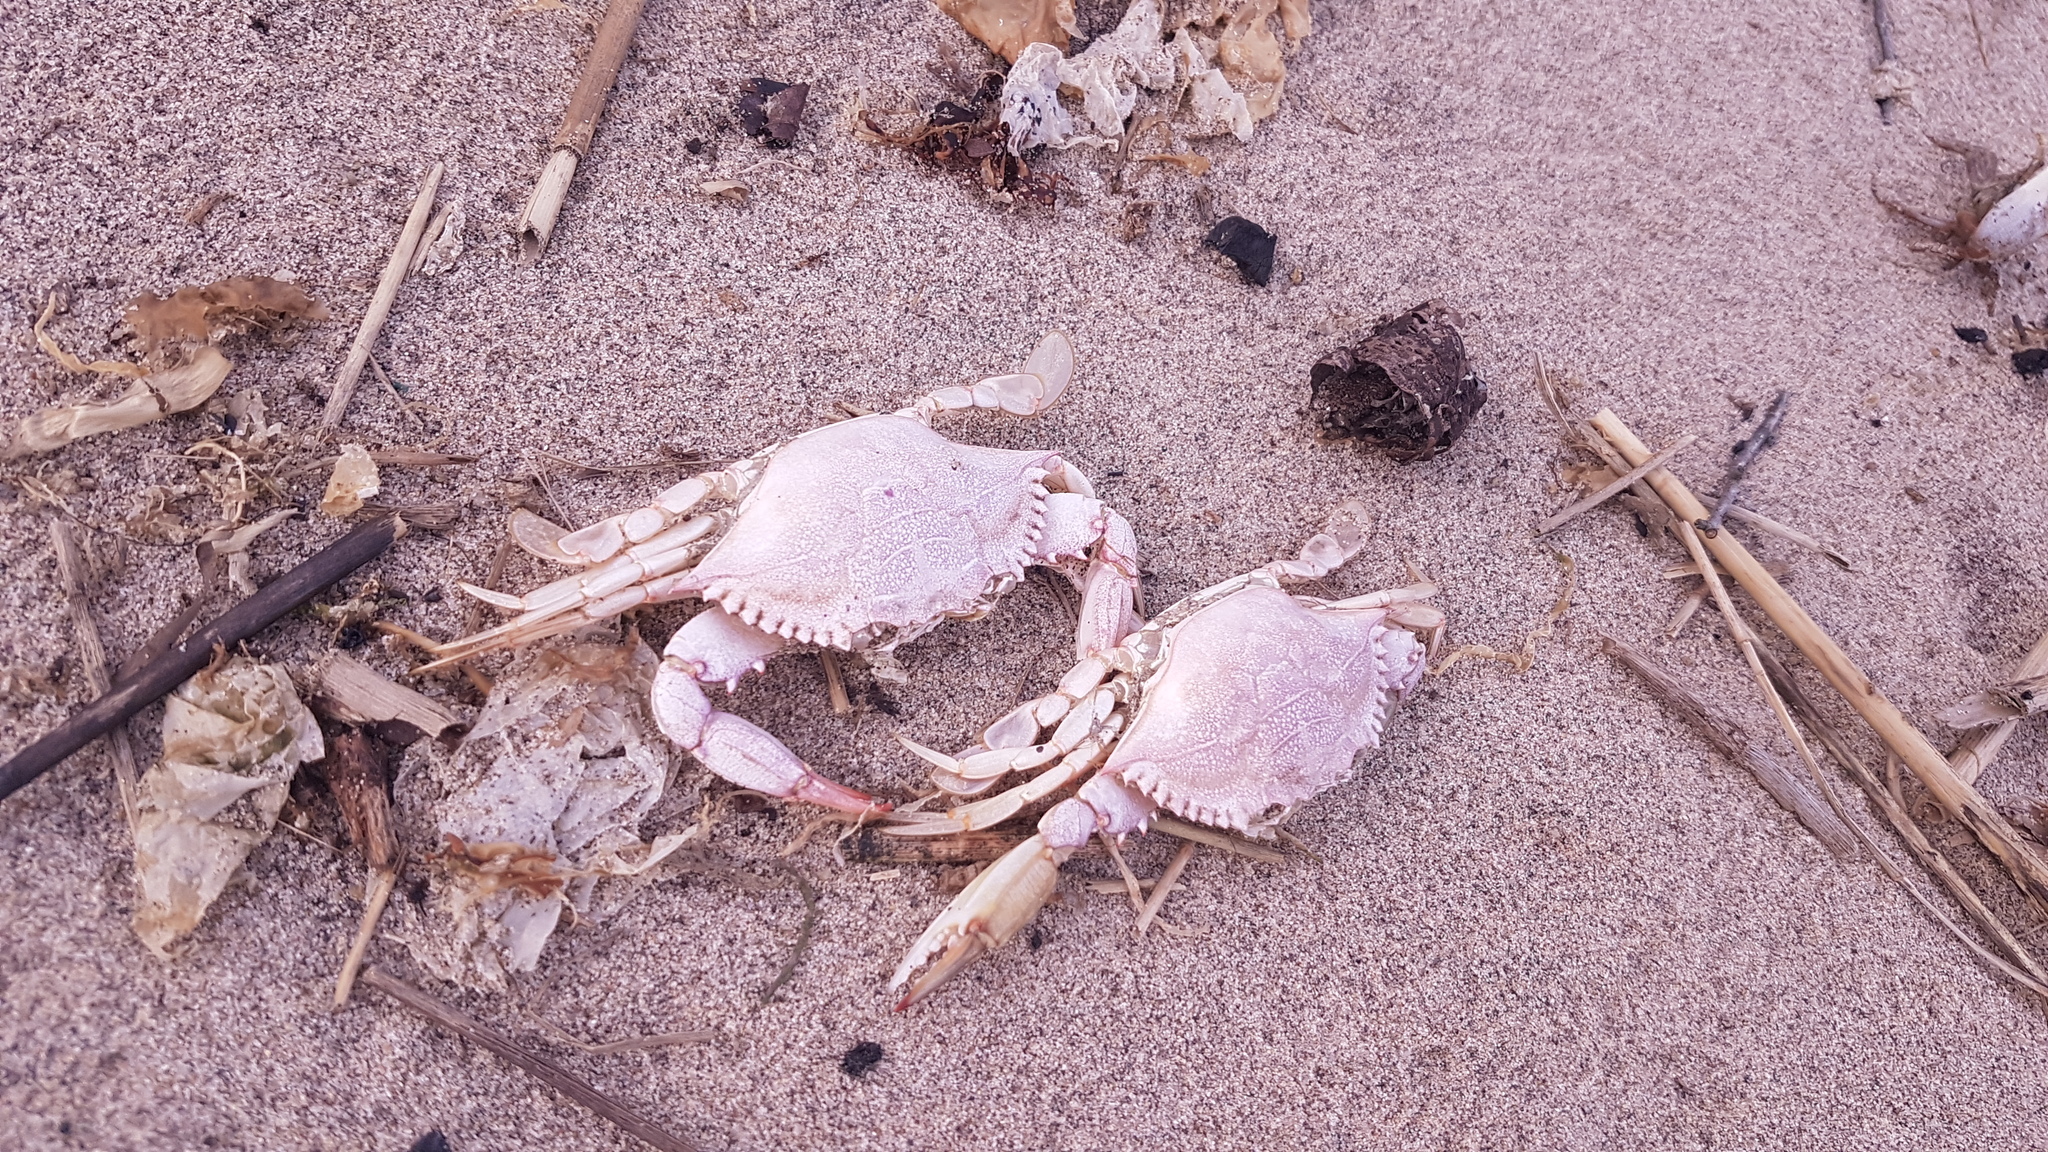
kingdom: Animalia
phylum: Arthropoda
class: Malacostraca
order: Decapoda
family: Portunidae
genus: Callinectes
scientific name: Callinectes sapidus
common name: Blue crab
